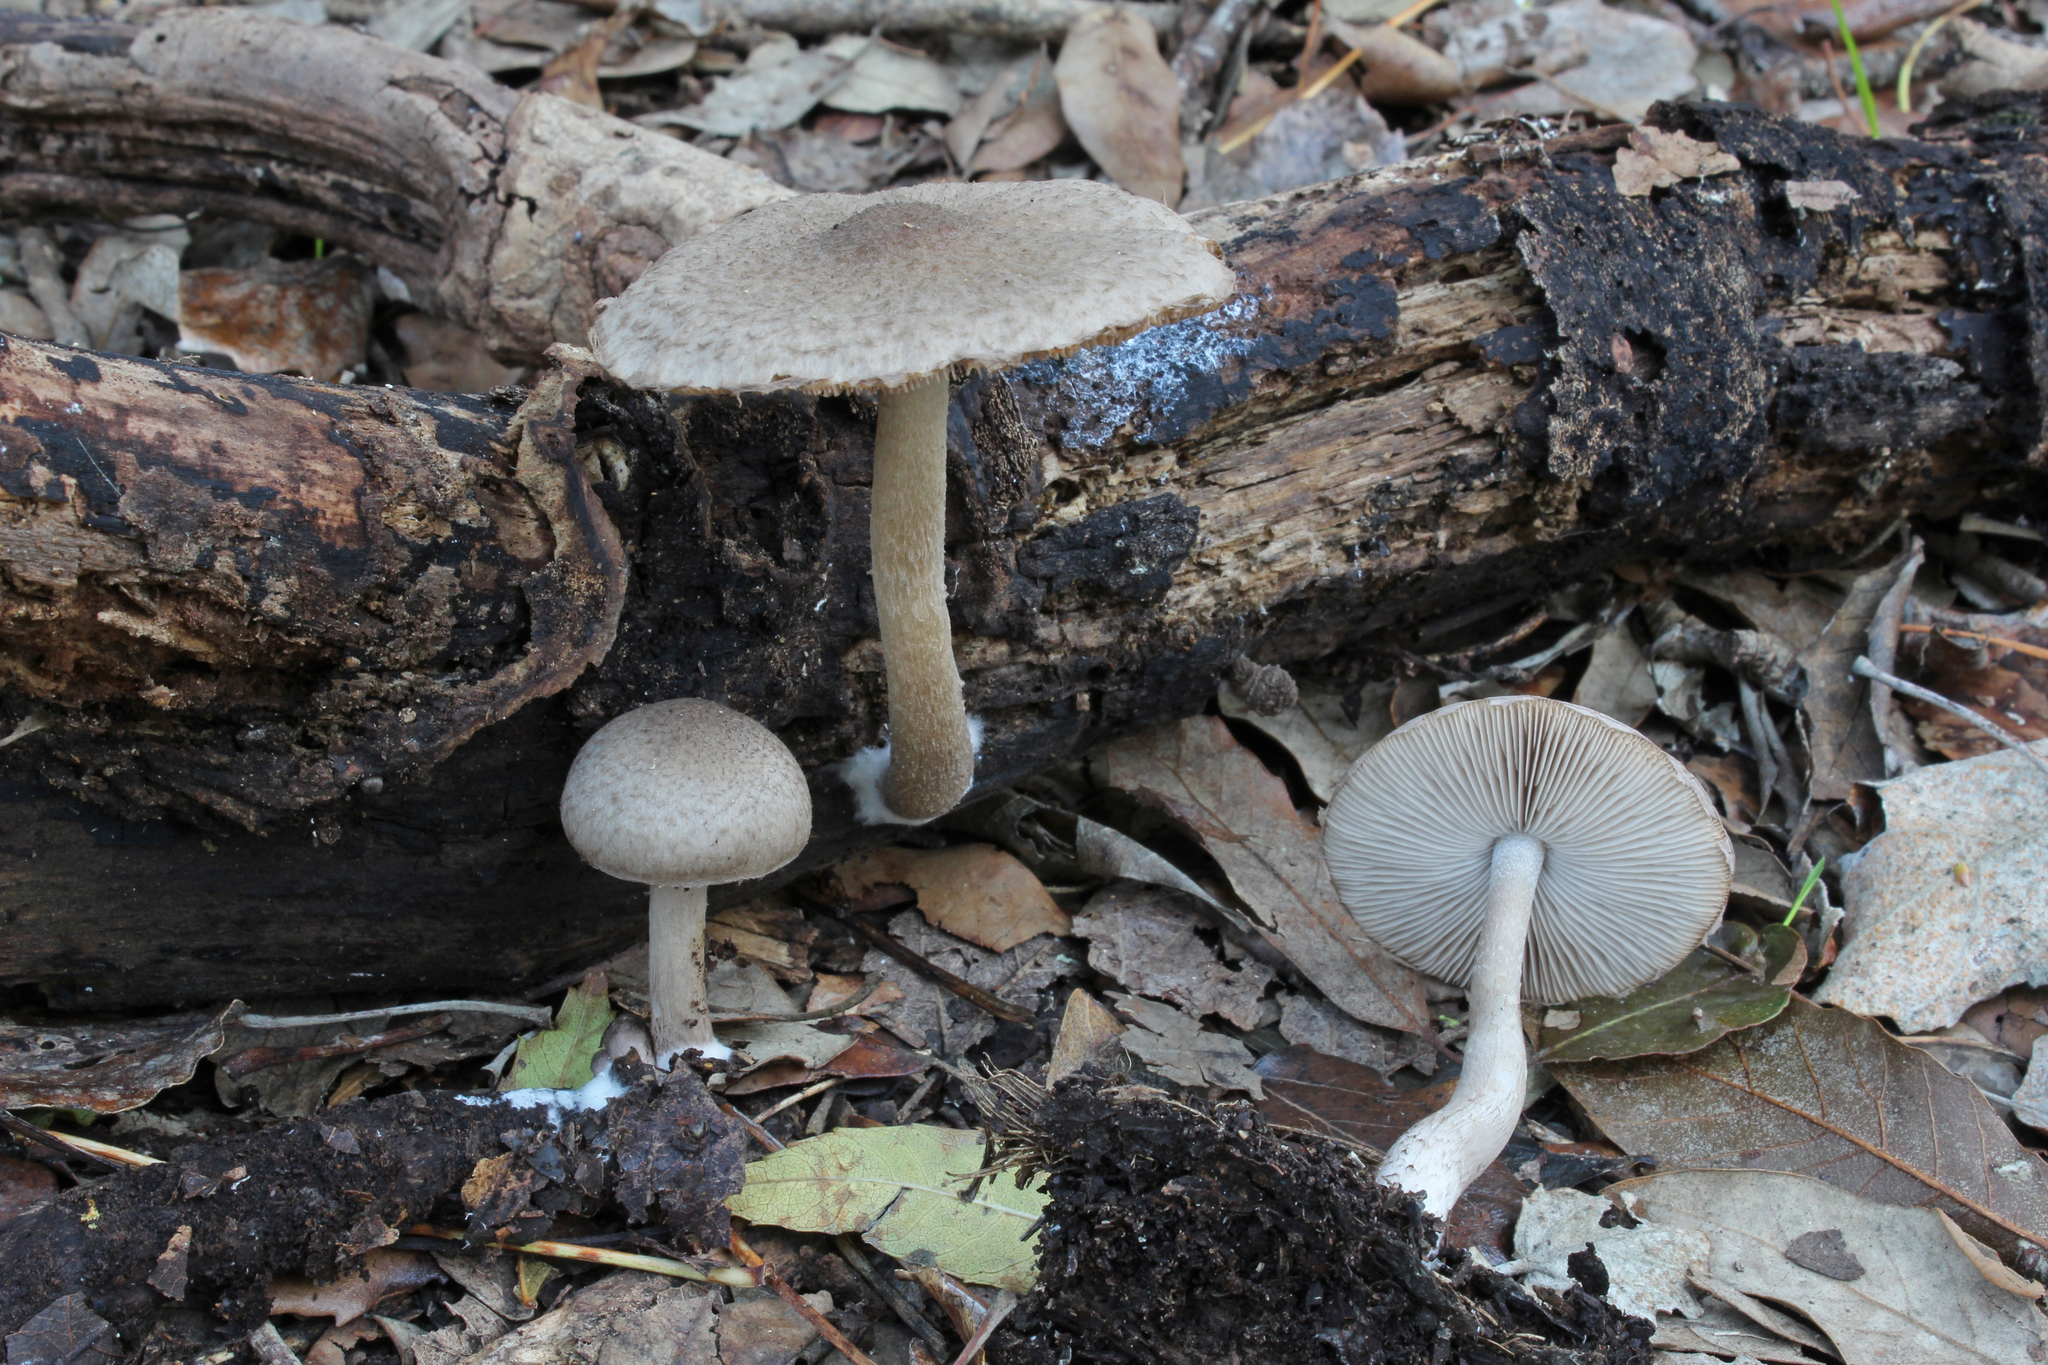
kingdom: Fungi
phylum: Basidiomycota
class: Agaricomycetes
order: Agaricales
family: Psathyrellaceae
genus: Coprinopsis
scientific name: Coprinopsis melanthina
